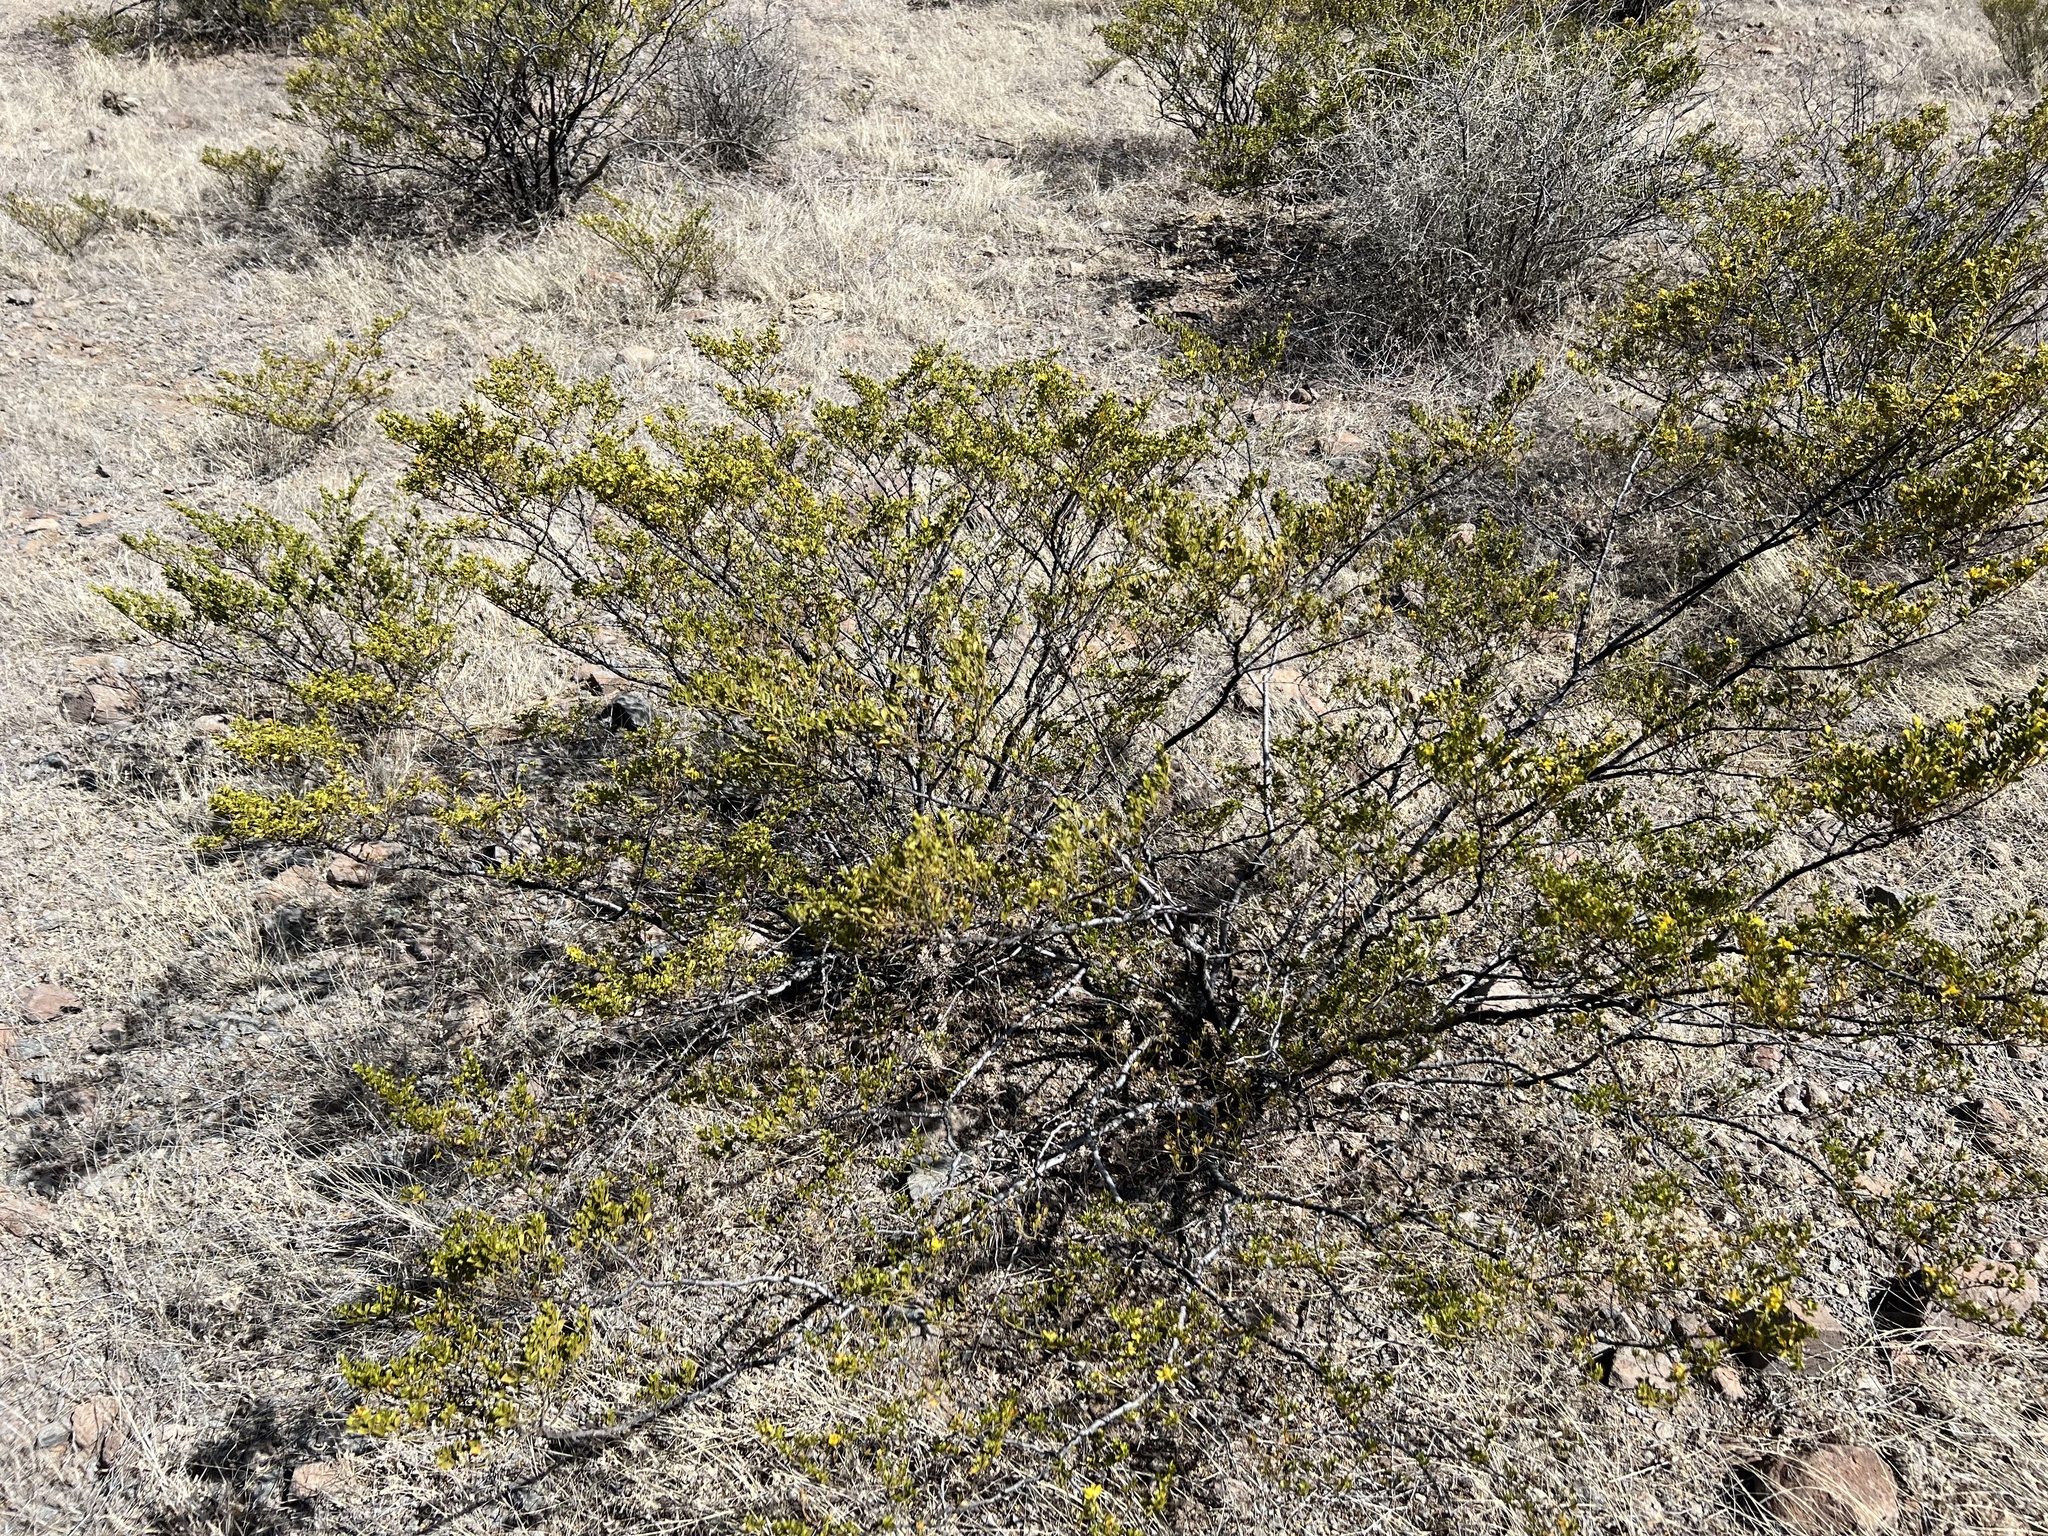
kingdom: Plantae
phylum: Tracheophyta
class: Magnoliopsida
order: Zygophyllales
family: Zygophyllaceae
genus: Larrea
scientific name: Larrea tridentata
